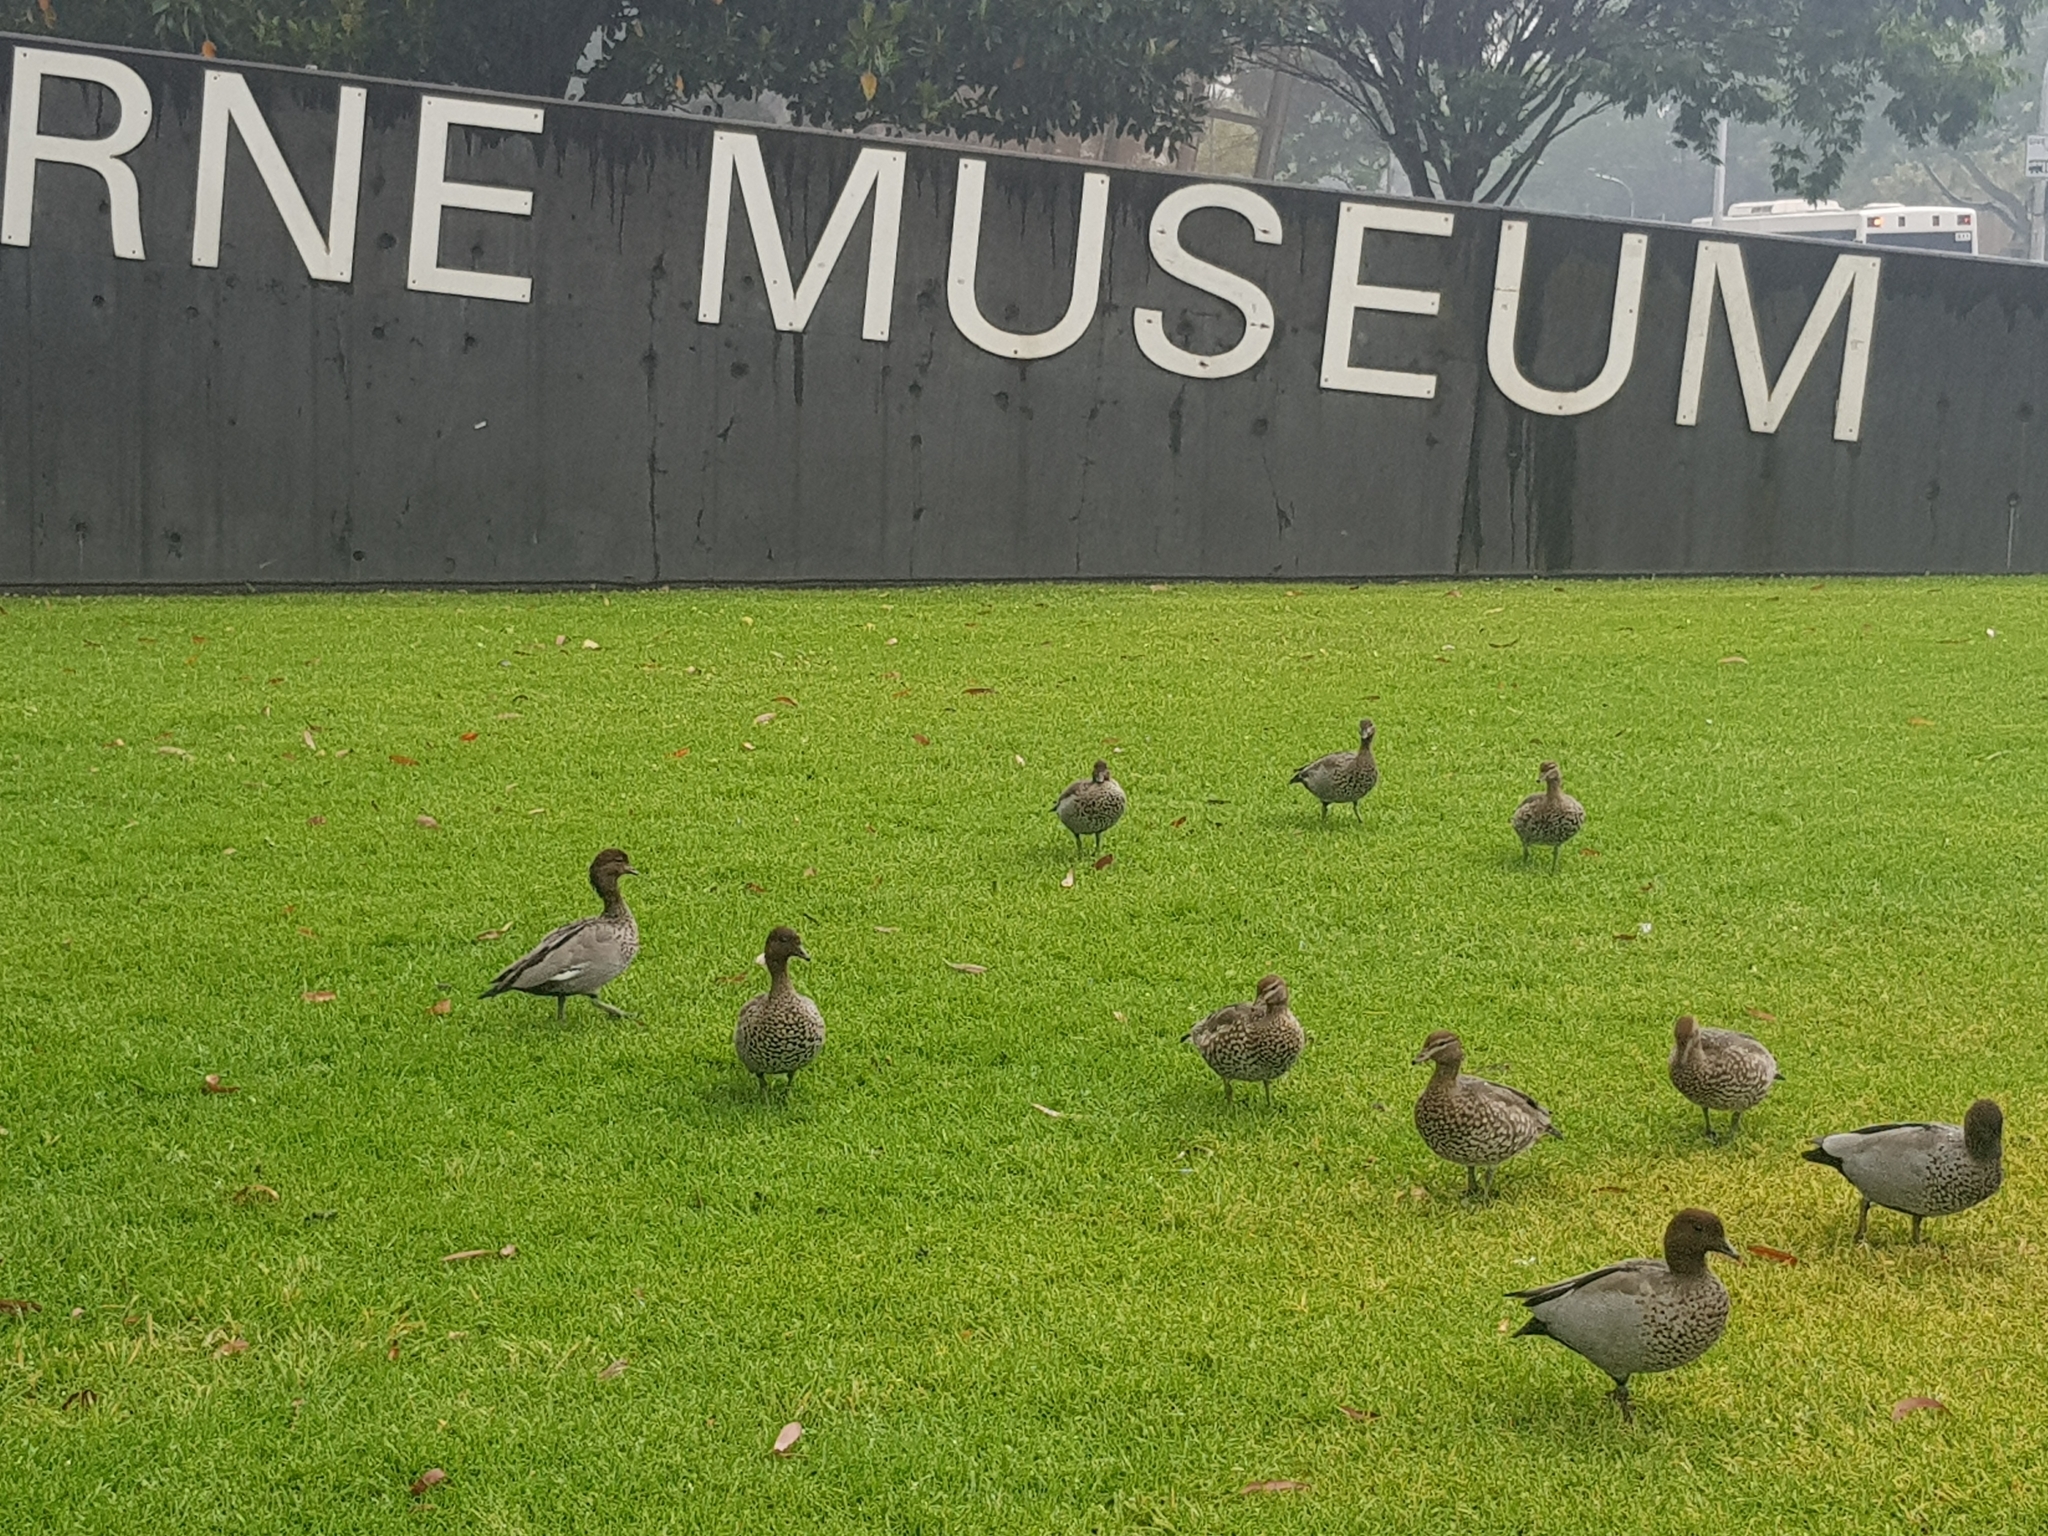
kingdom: Animalia
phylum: Chordata
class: Aves
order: Anseriformes
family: Anatidae
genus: Chenonetta
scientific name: Chenonetta jubata
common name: Maned duck
